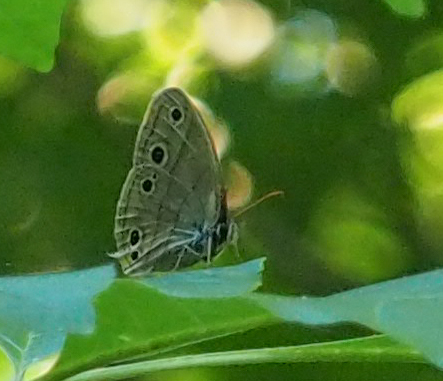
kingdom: Animalia
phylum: Arthropoda
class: Insecta
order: Lepidoptera
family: Nymphalidae
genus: Euptychia
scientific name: Euptychia cymela
